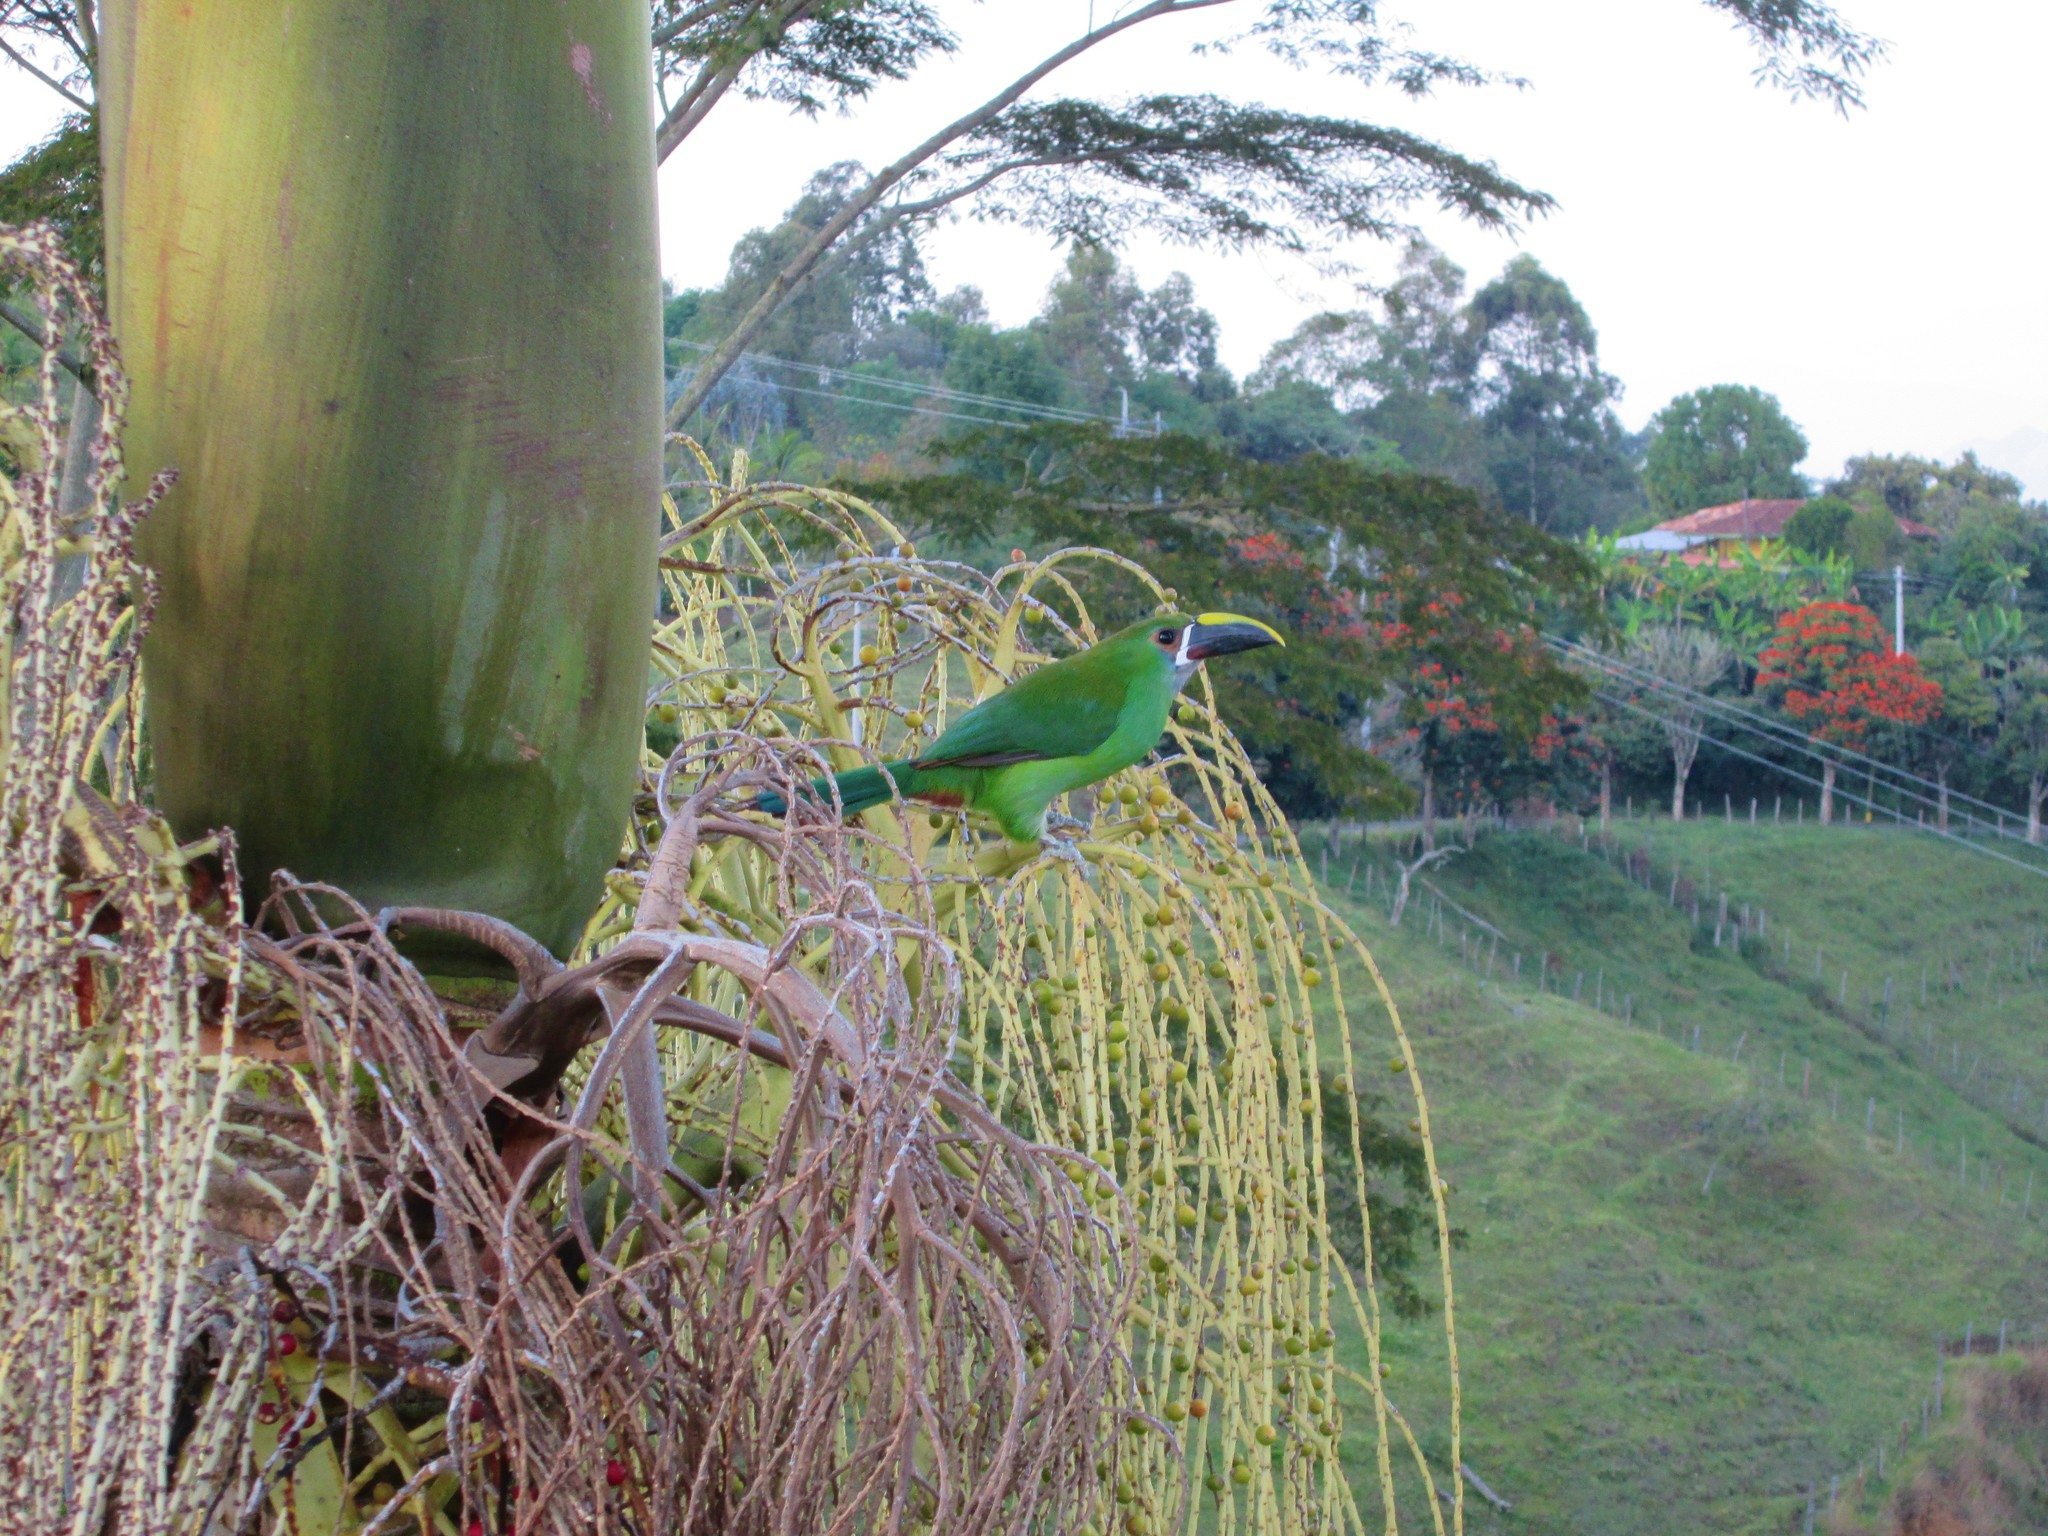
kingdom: Animalia
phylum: Chordata
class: Aves
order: Piciformes
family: Ramphastidae
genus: Aulacorhynchus
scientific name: Aulacorhynchus albivitta
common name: White-throated toucanet
